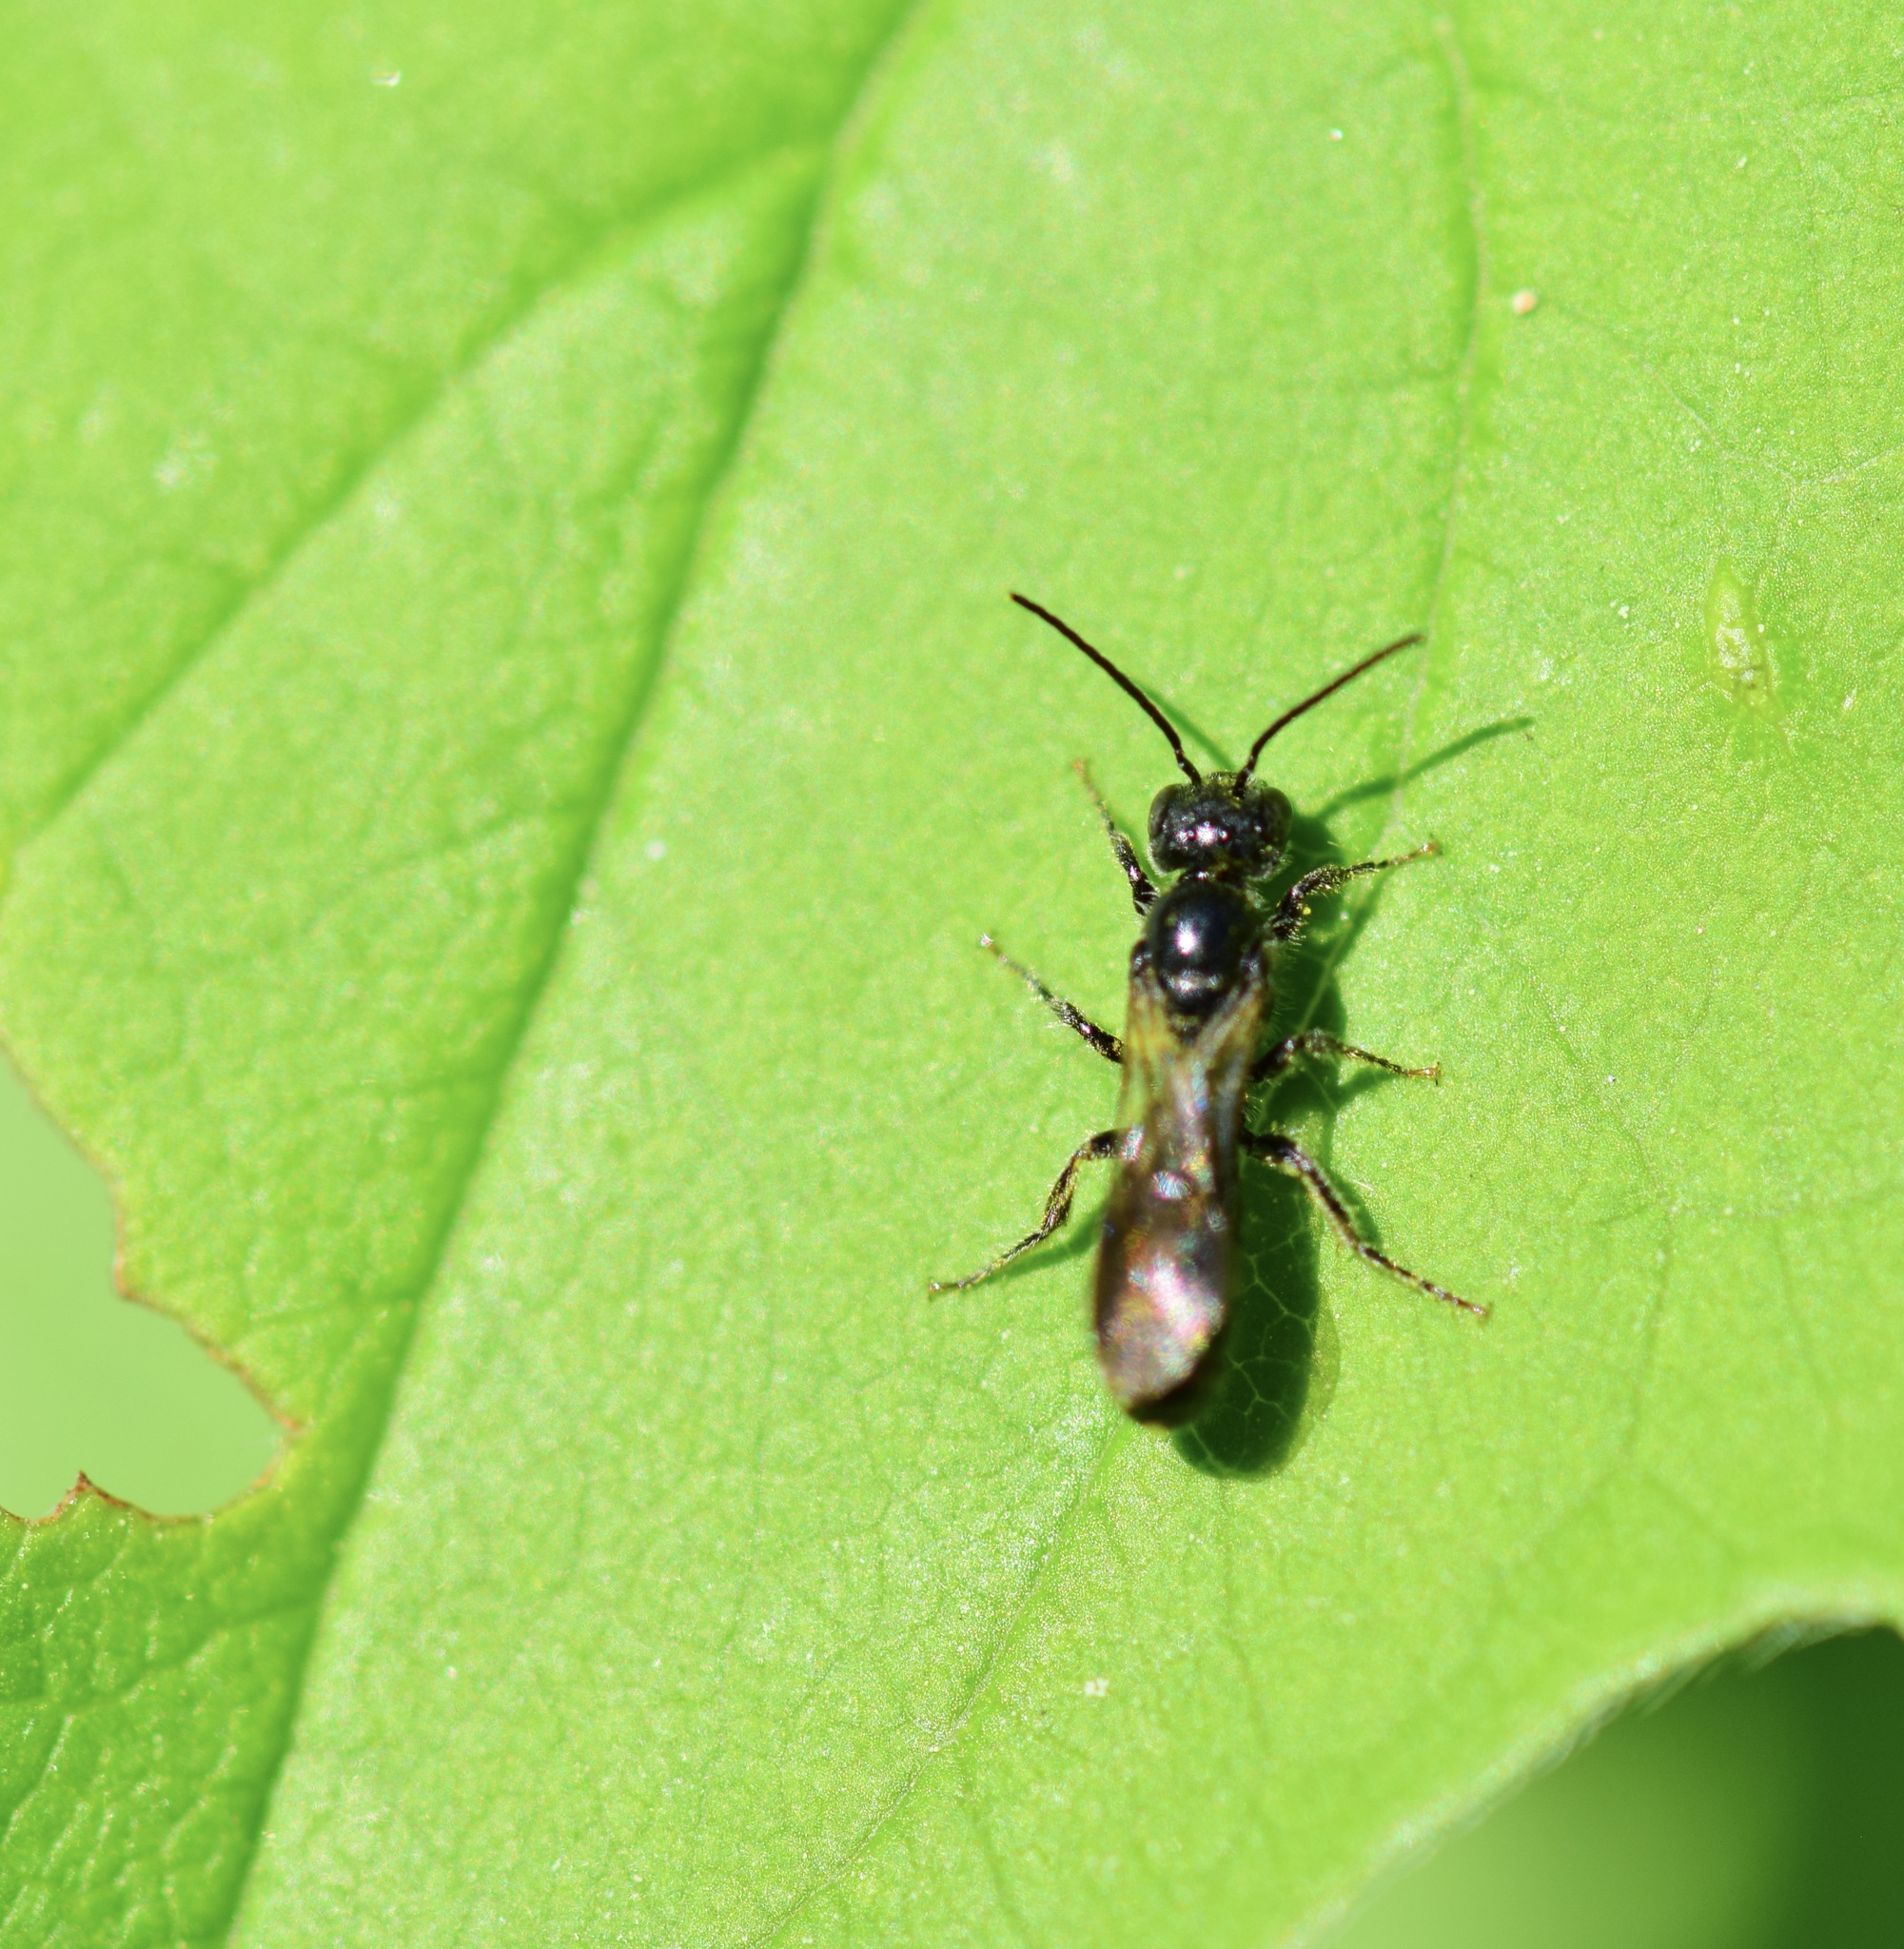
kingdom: Animalia
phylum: Arthropoda
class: Insecta
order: Hymenoptera
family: Megachilidae
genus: Chelostoma
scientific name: Chelostoma philadelphi
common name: Mock-orange scissor bee
